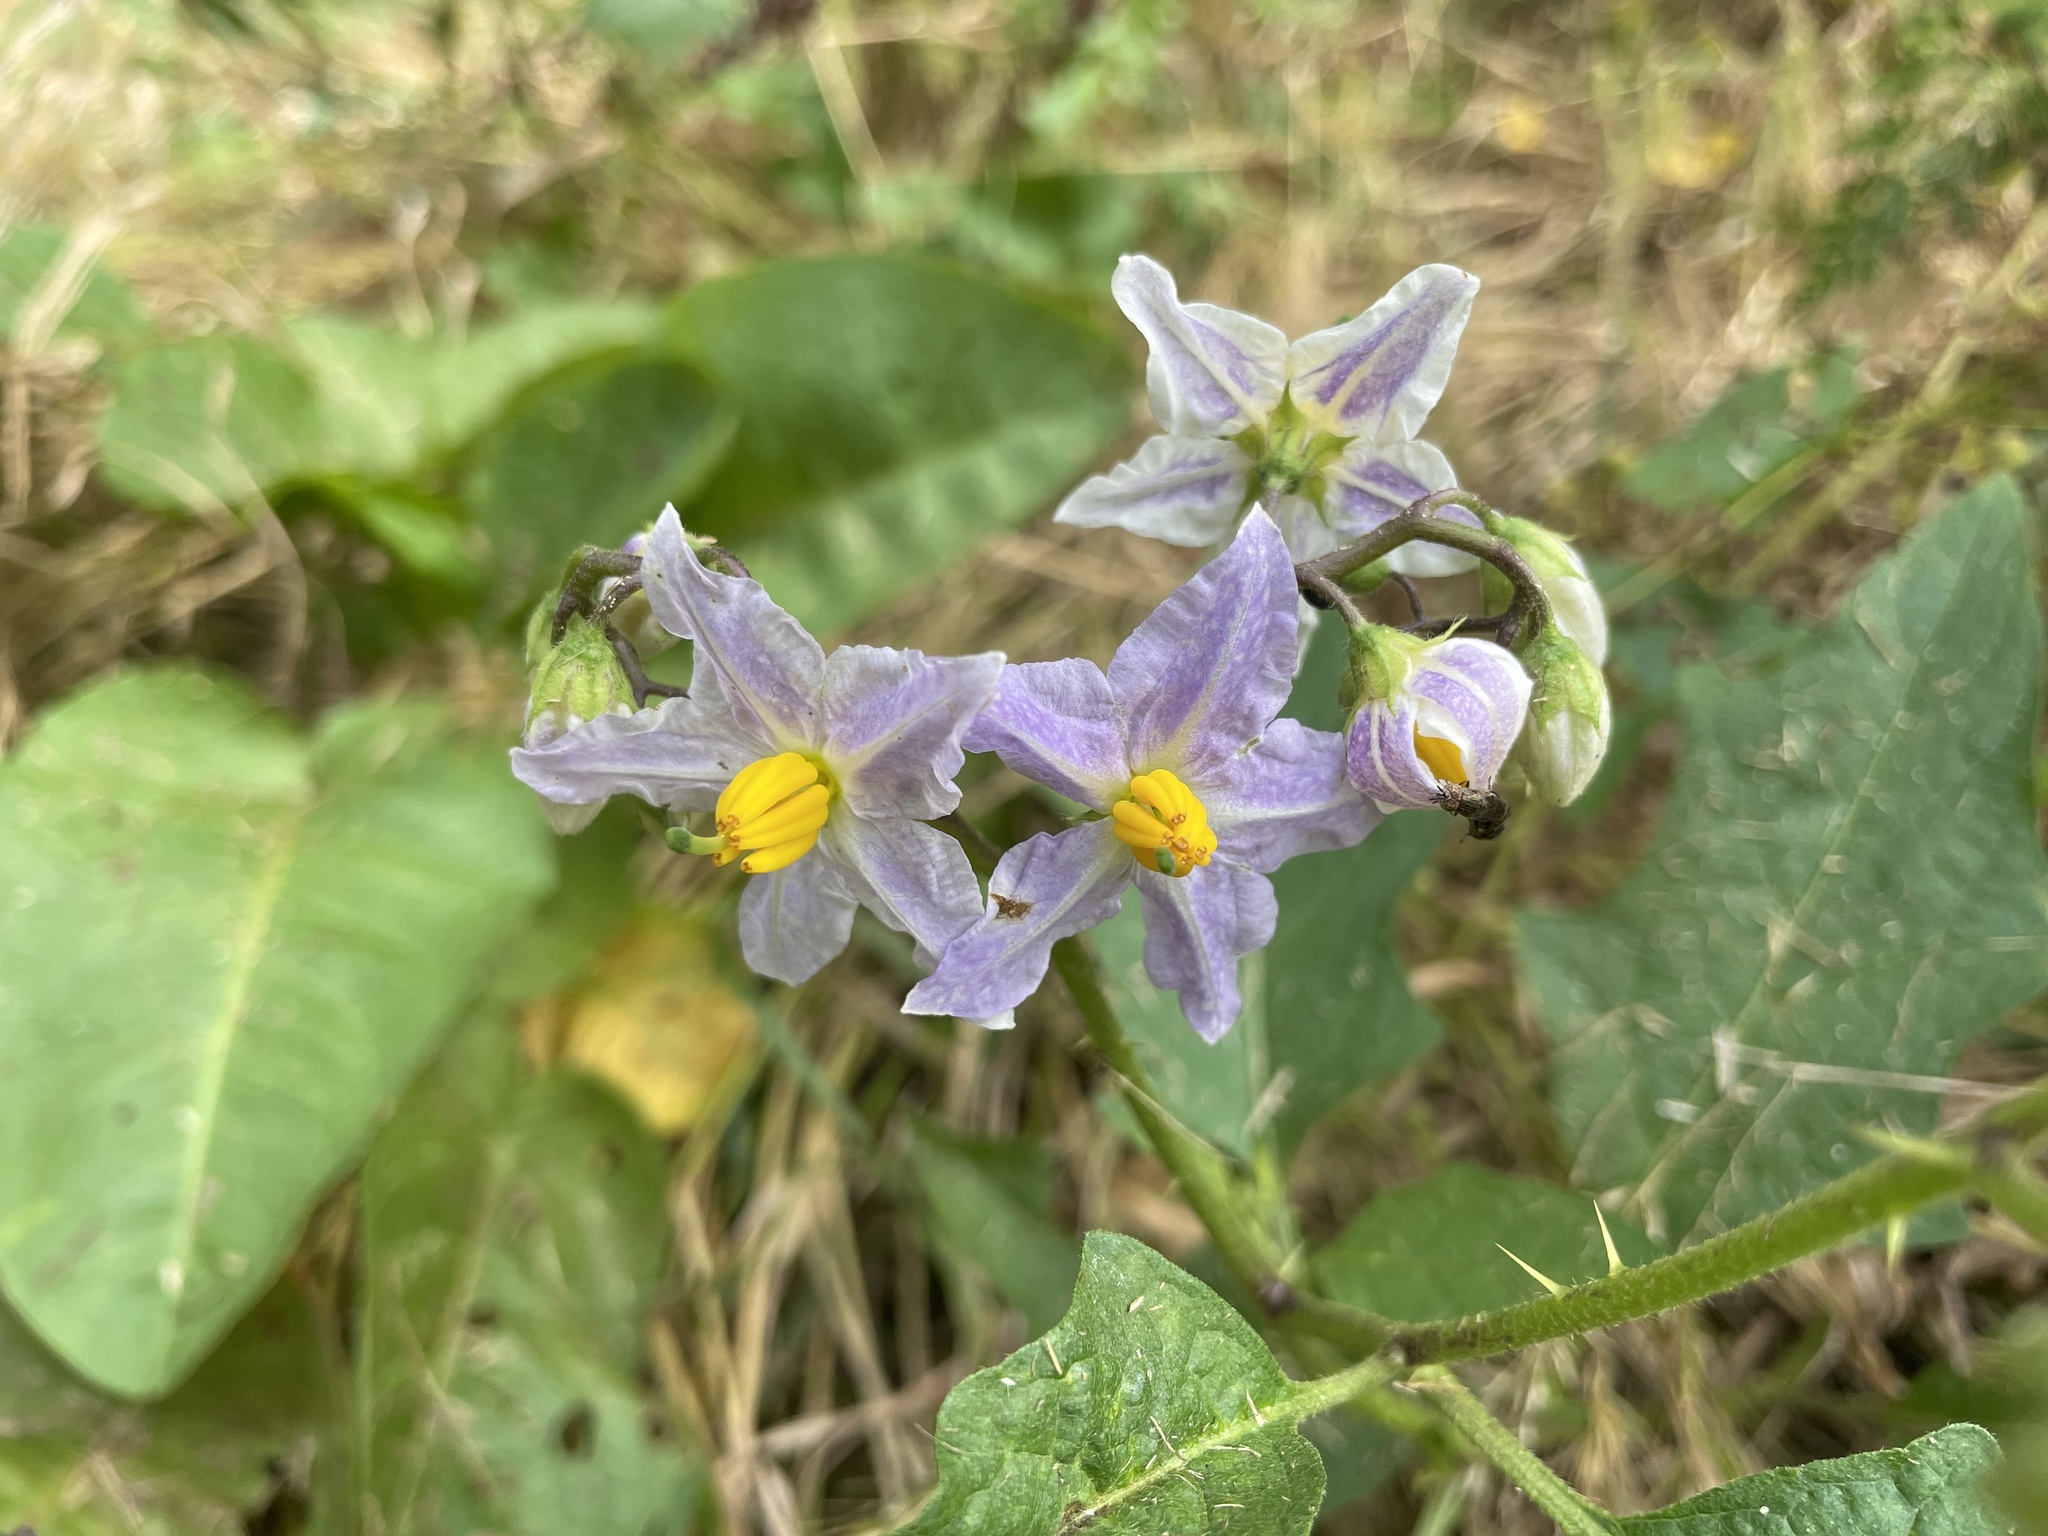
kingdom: Plantae
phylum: Tracheophyta
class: Magnoliopsida
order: Solanales
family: Solanaceae
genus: Solanum
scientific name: Solanum carolinense
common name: Horse-nettle
